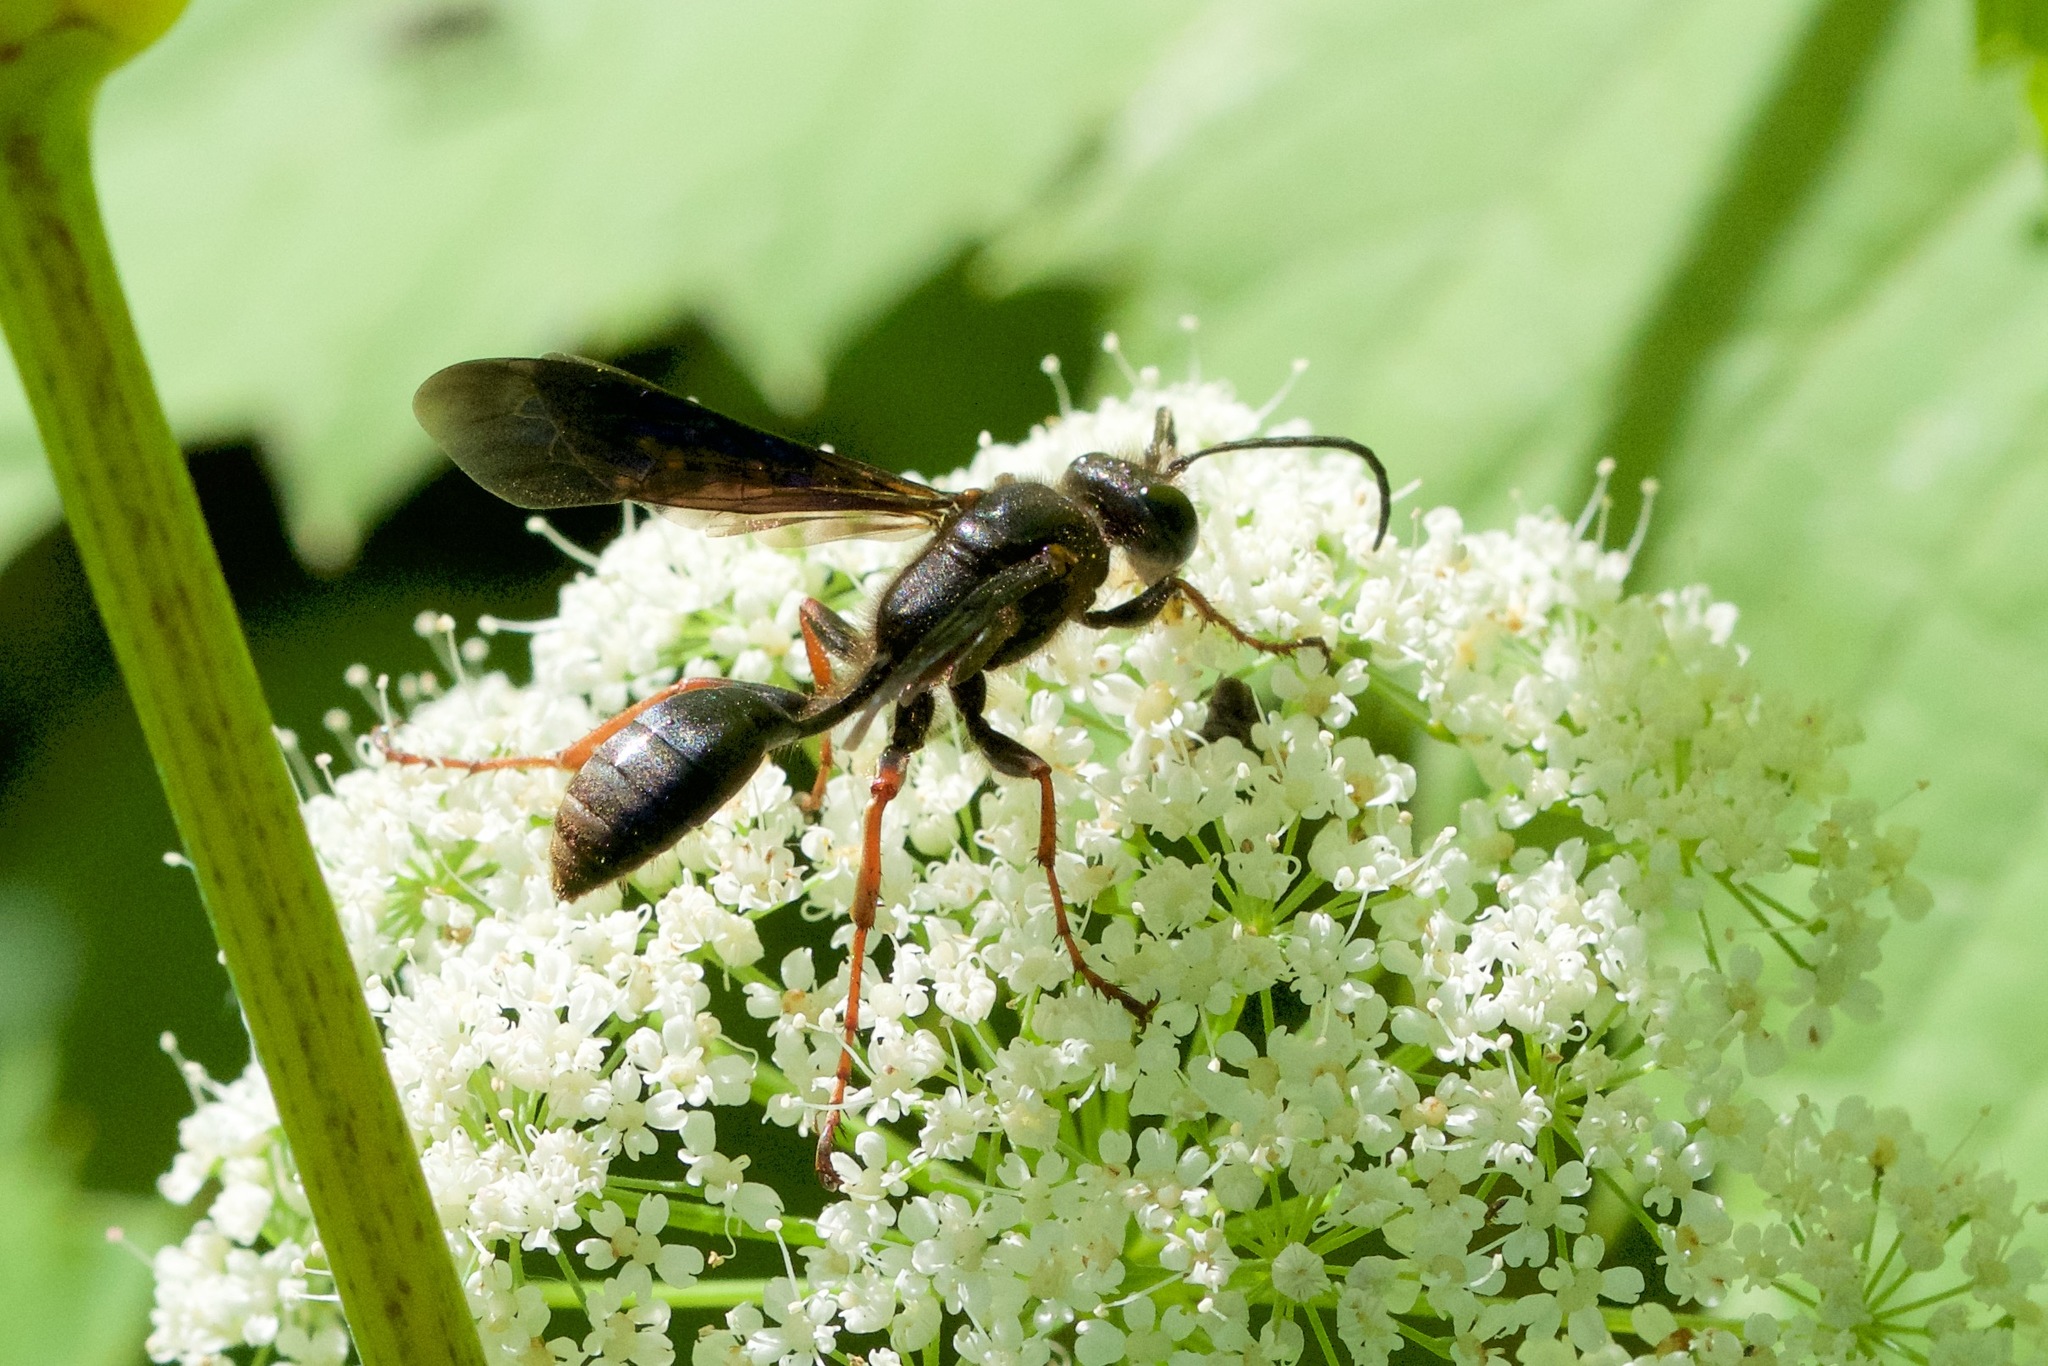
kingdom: Animalia
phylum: Arthropoda
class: Insecta
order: Hymenoptera
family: Sphecidae
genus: Isodontia
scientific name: Isodontia auripes
